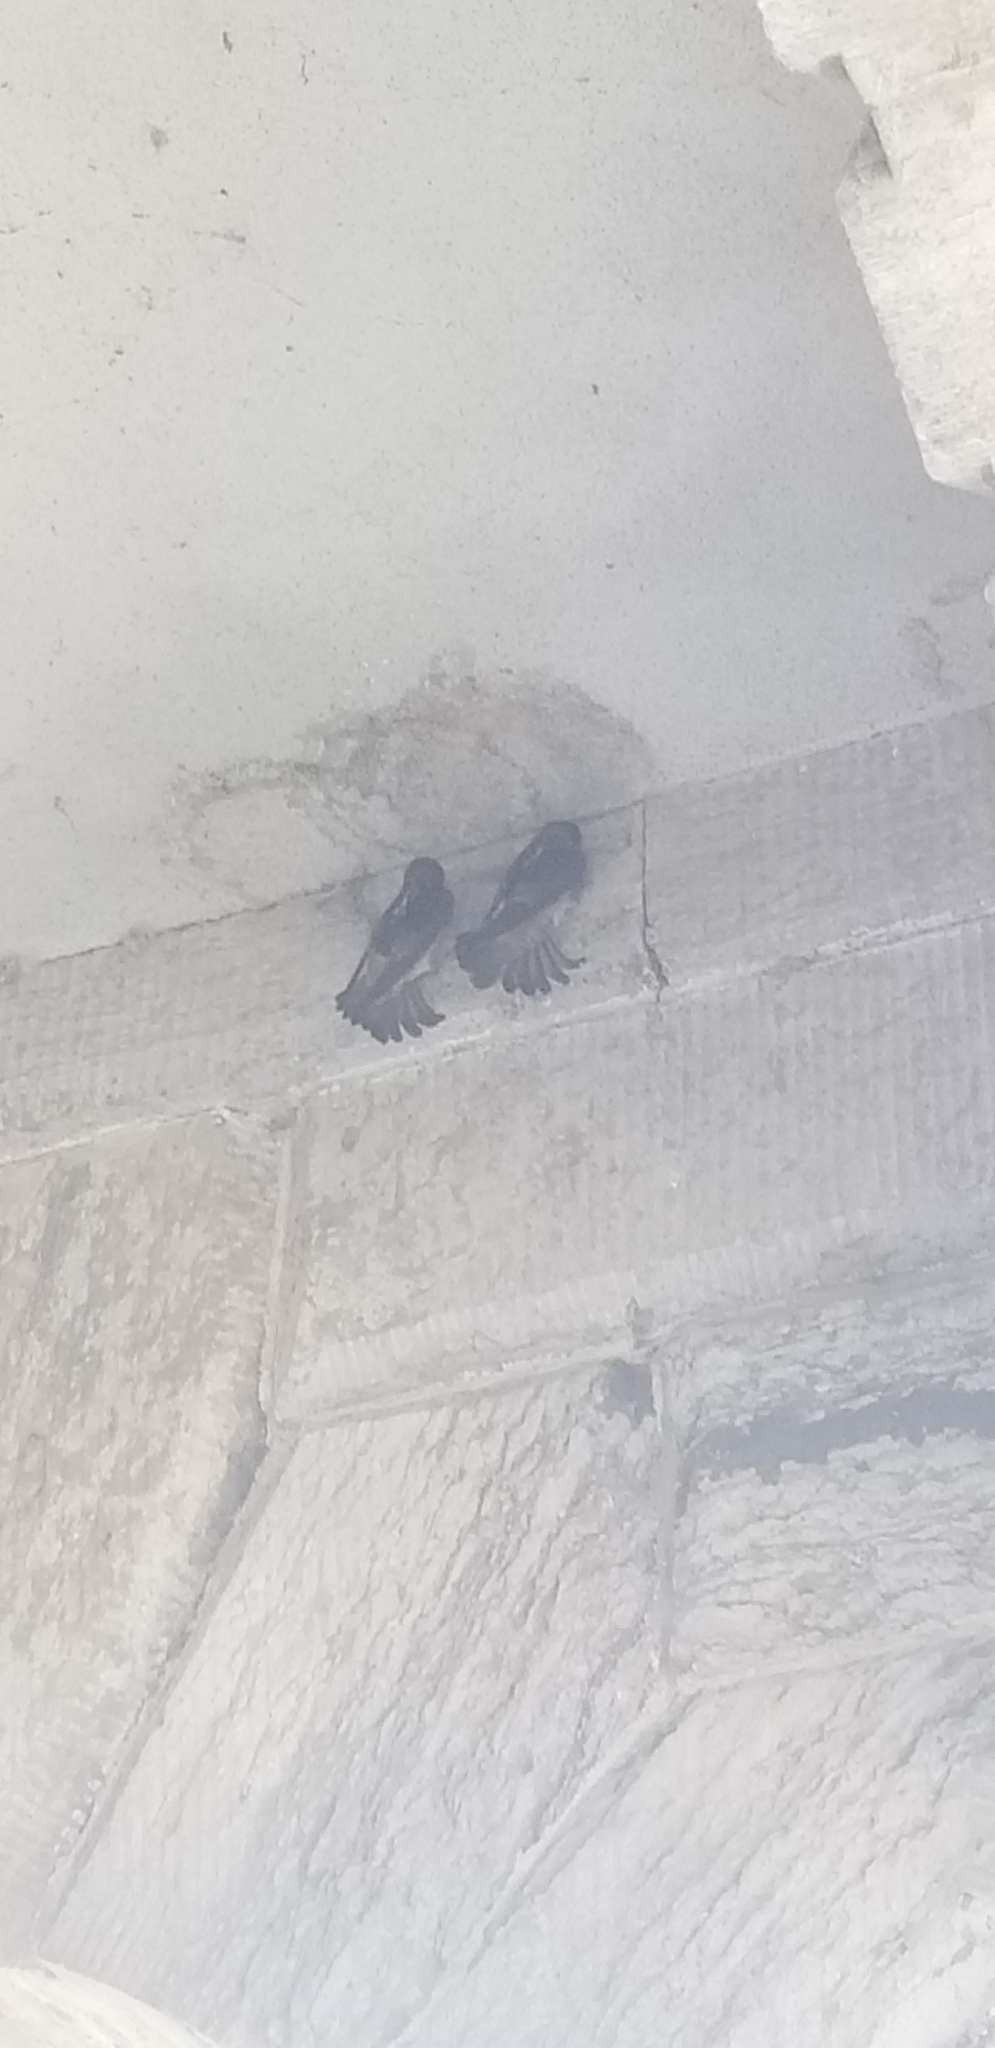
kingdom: Animalia
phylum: Chordata
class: Aves
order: Passeriformes
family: Hirundinidae
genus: Petrochelidon
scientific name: Petrochelidon pyrrhonota
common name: American cliff swallow
